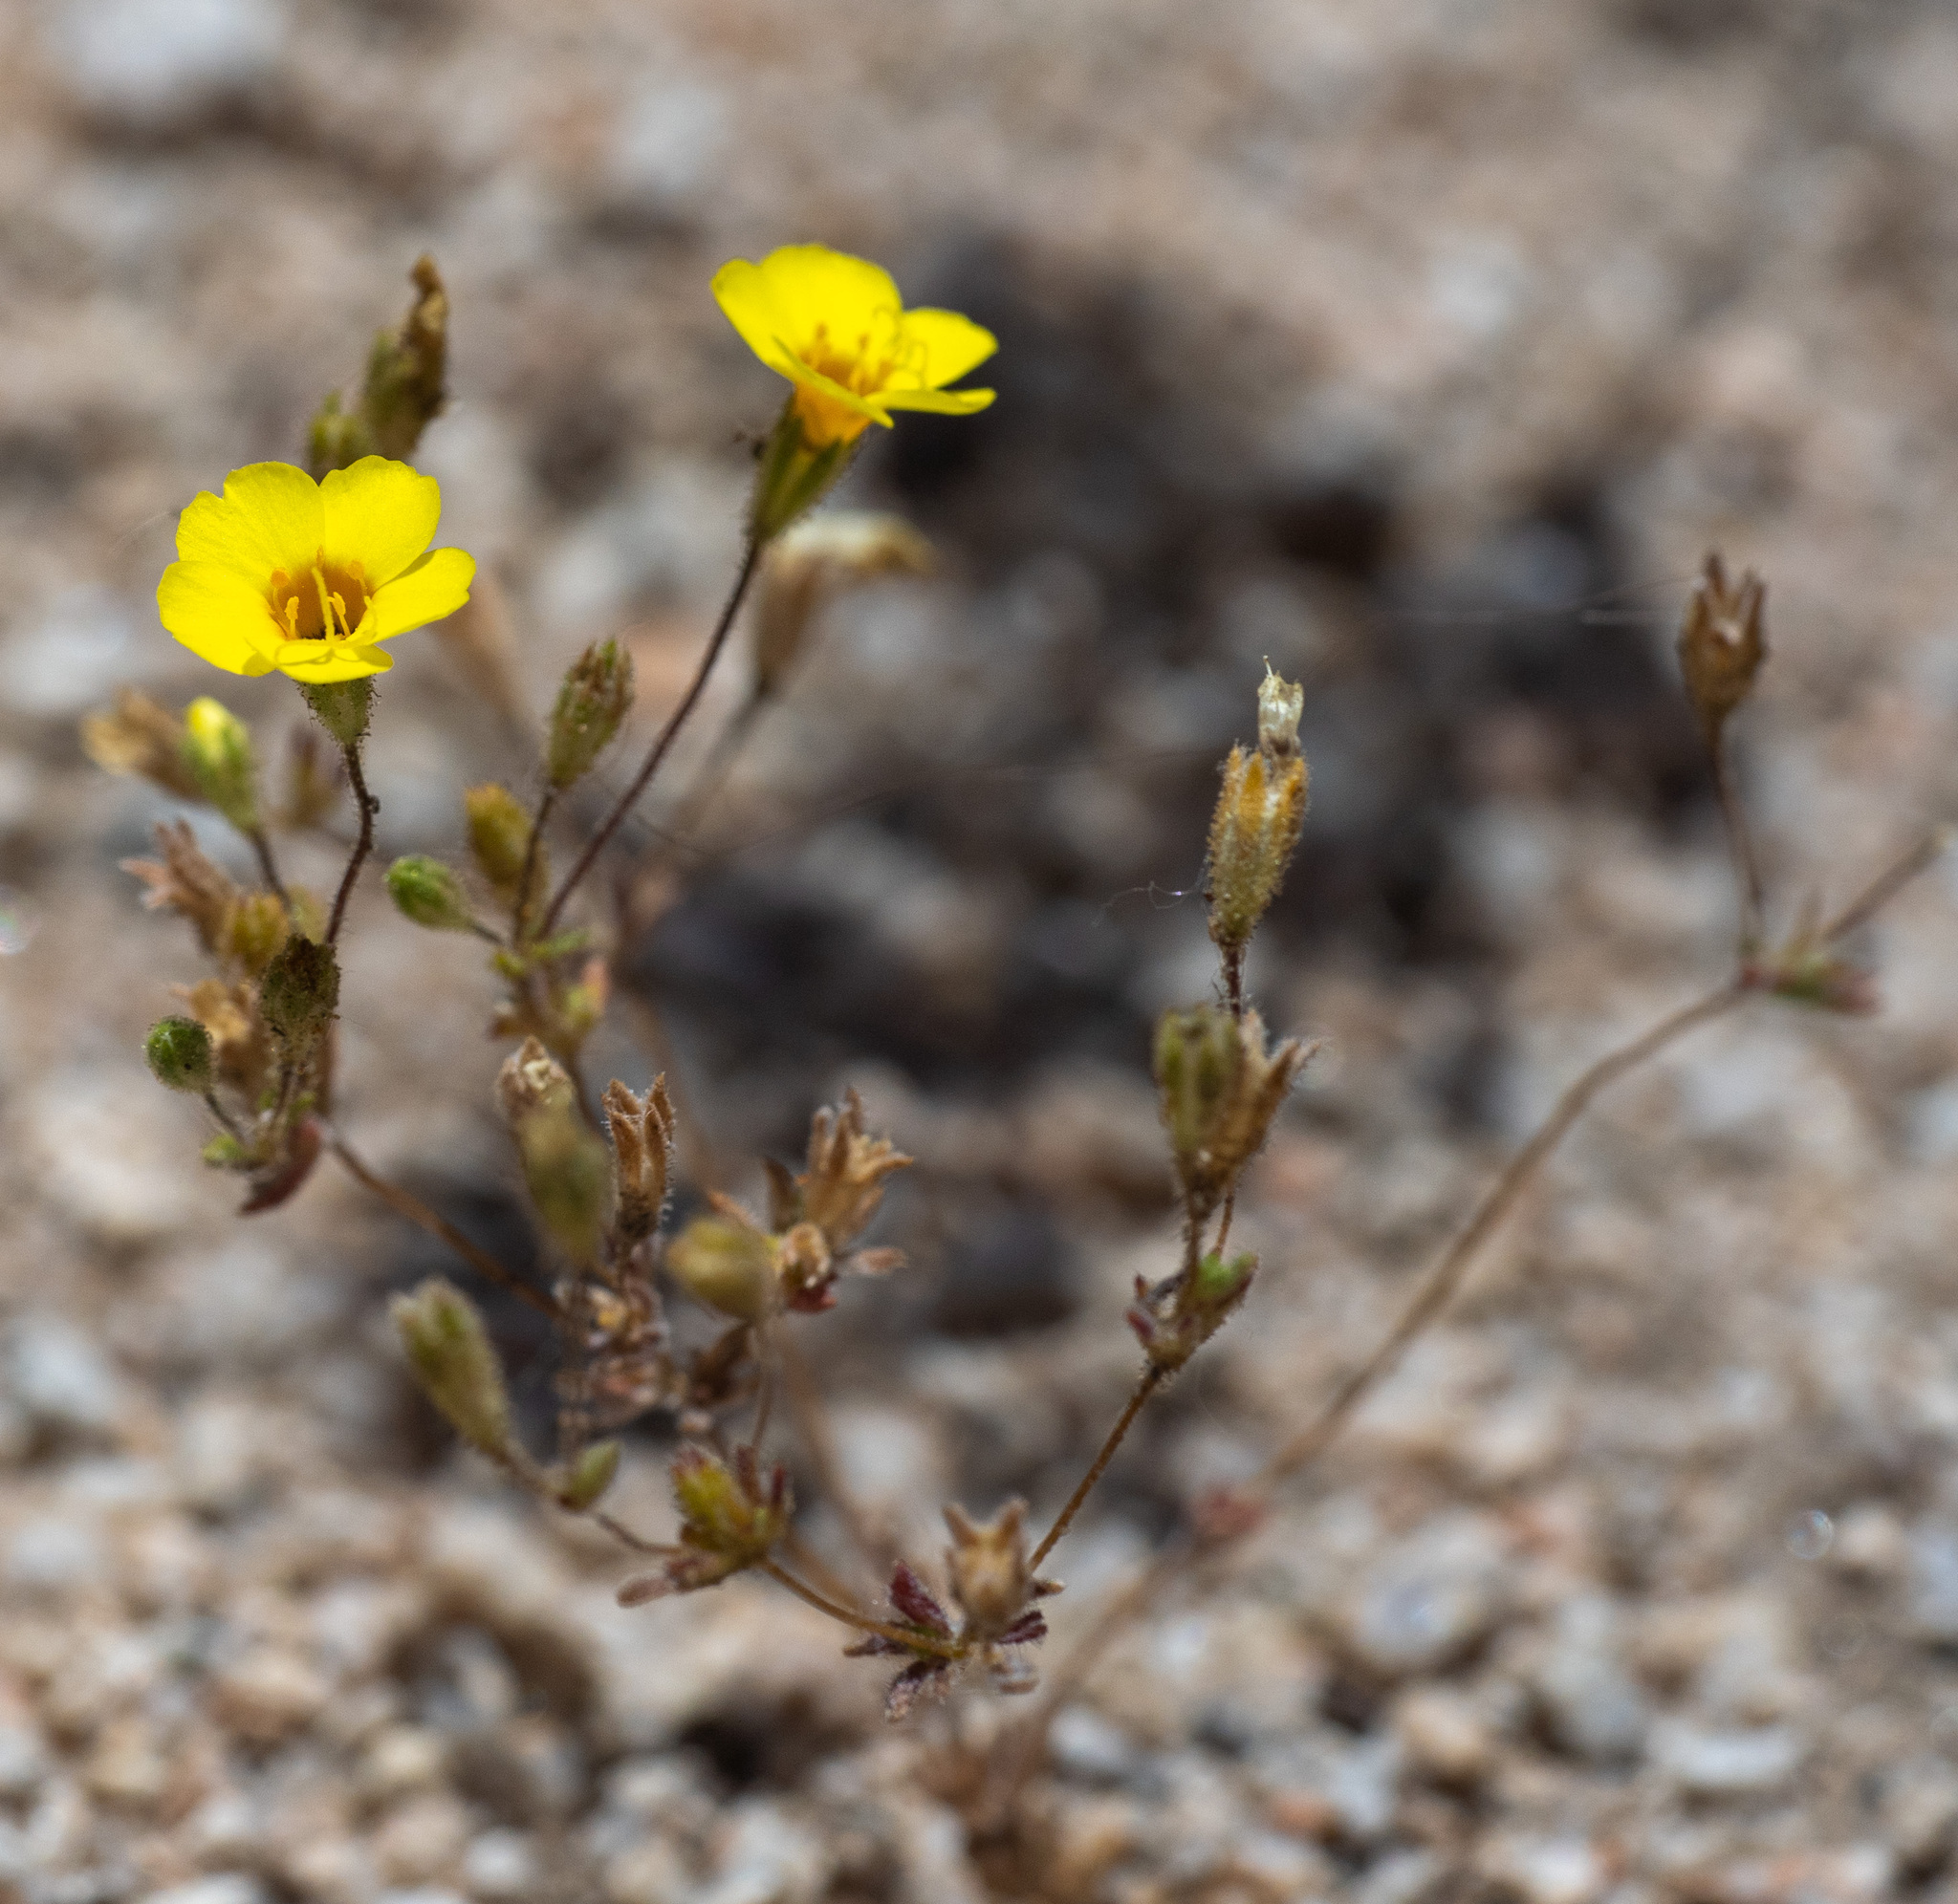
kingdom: Plantae
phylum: Tracheophyta
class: Magnoliopsida
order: Ericales
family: Polemoniaceae
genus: Leptosiphon
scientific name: Leptosiphon chrysanthus
